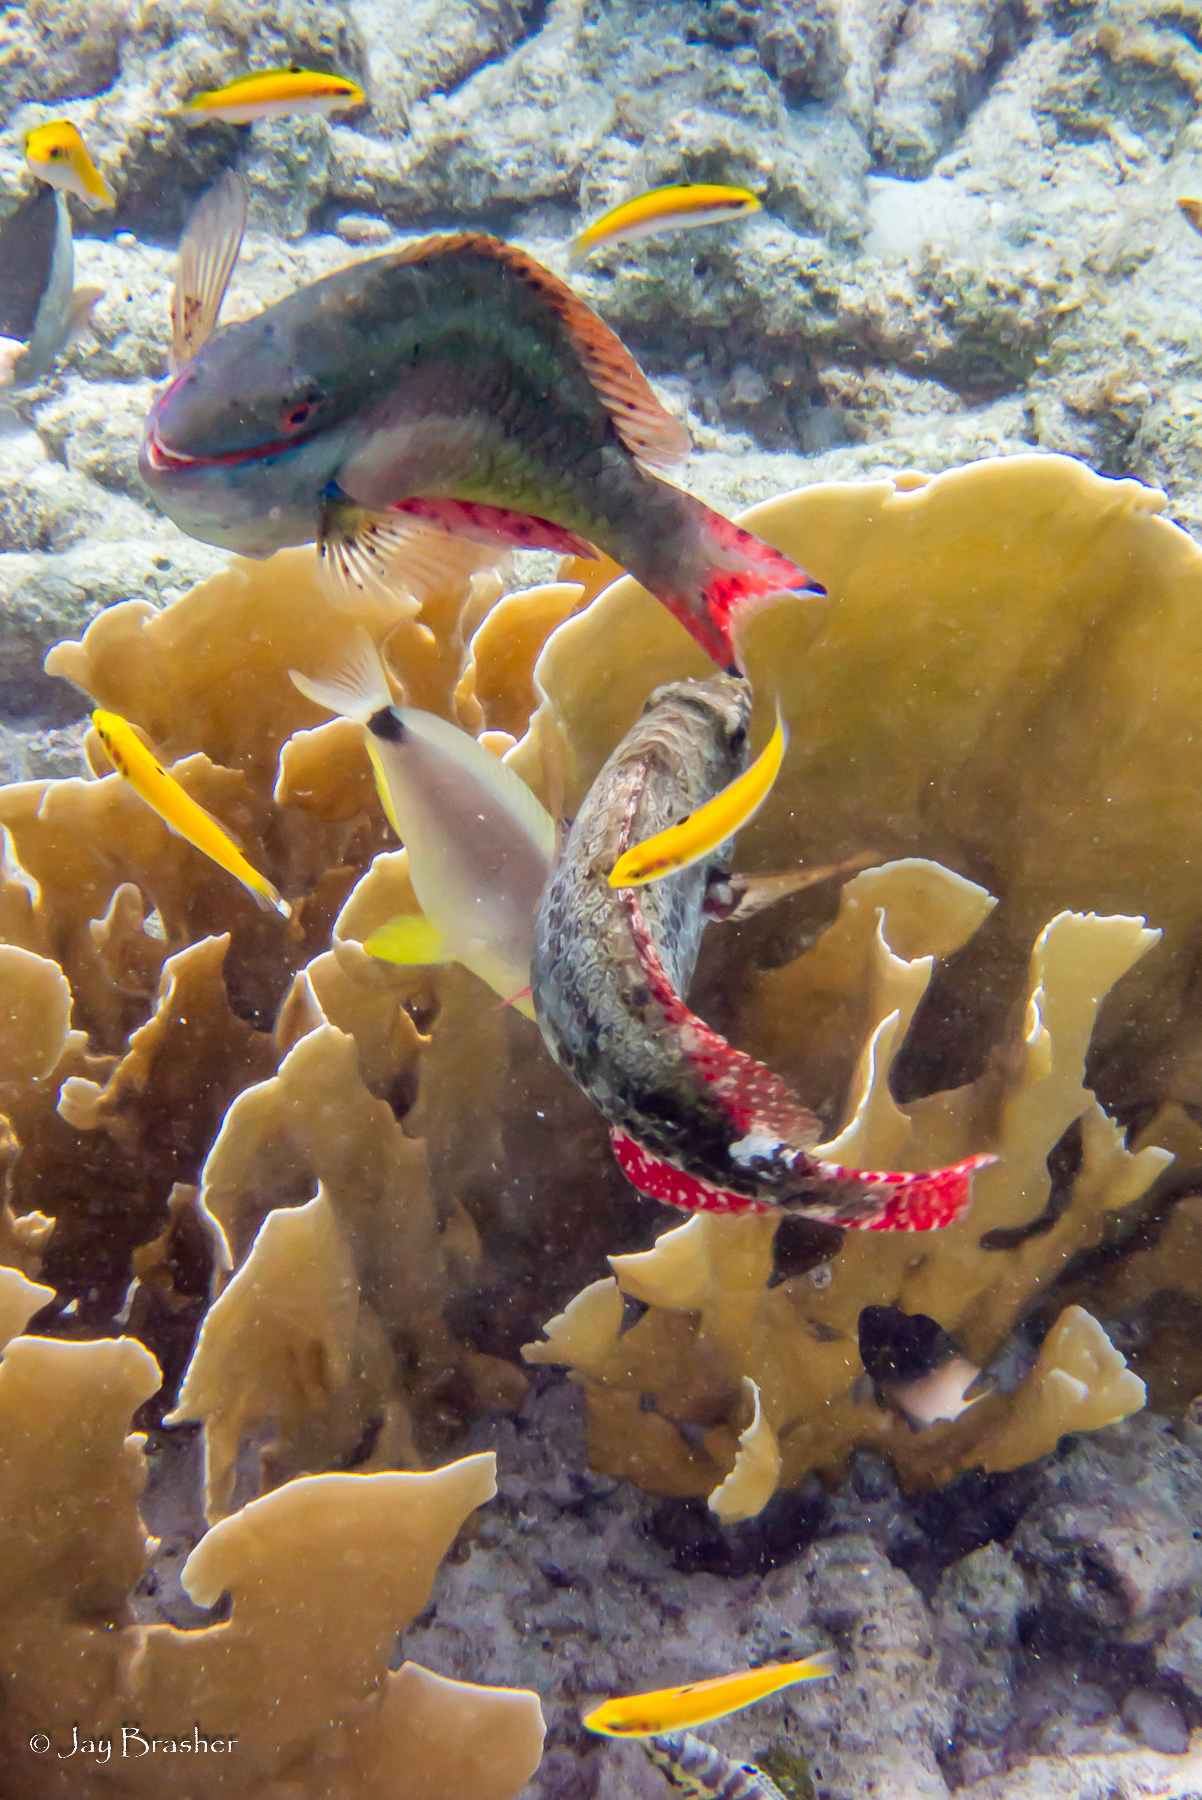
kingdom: Animalia
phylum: Chordata
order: Perciformes
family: Serranidae
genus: Hypoplectrus
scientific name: Hypoplectrus unicolor
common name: Butter hamlet
